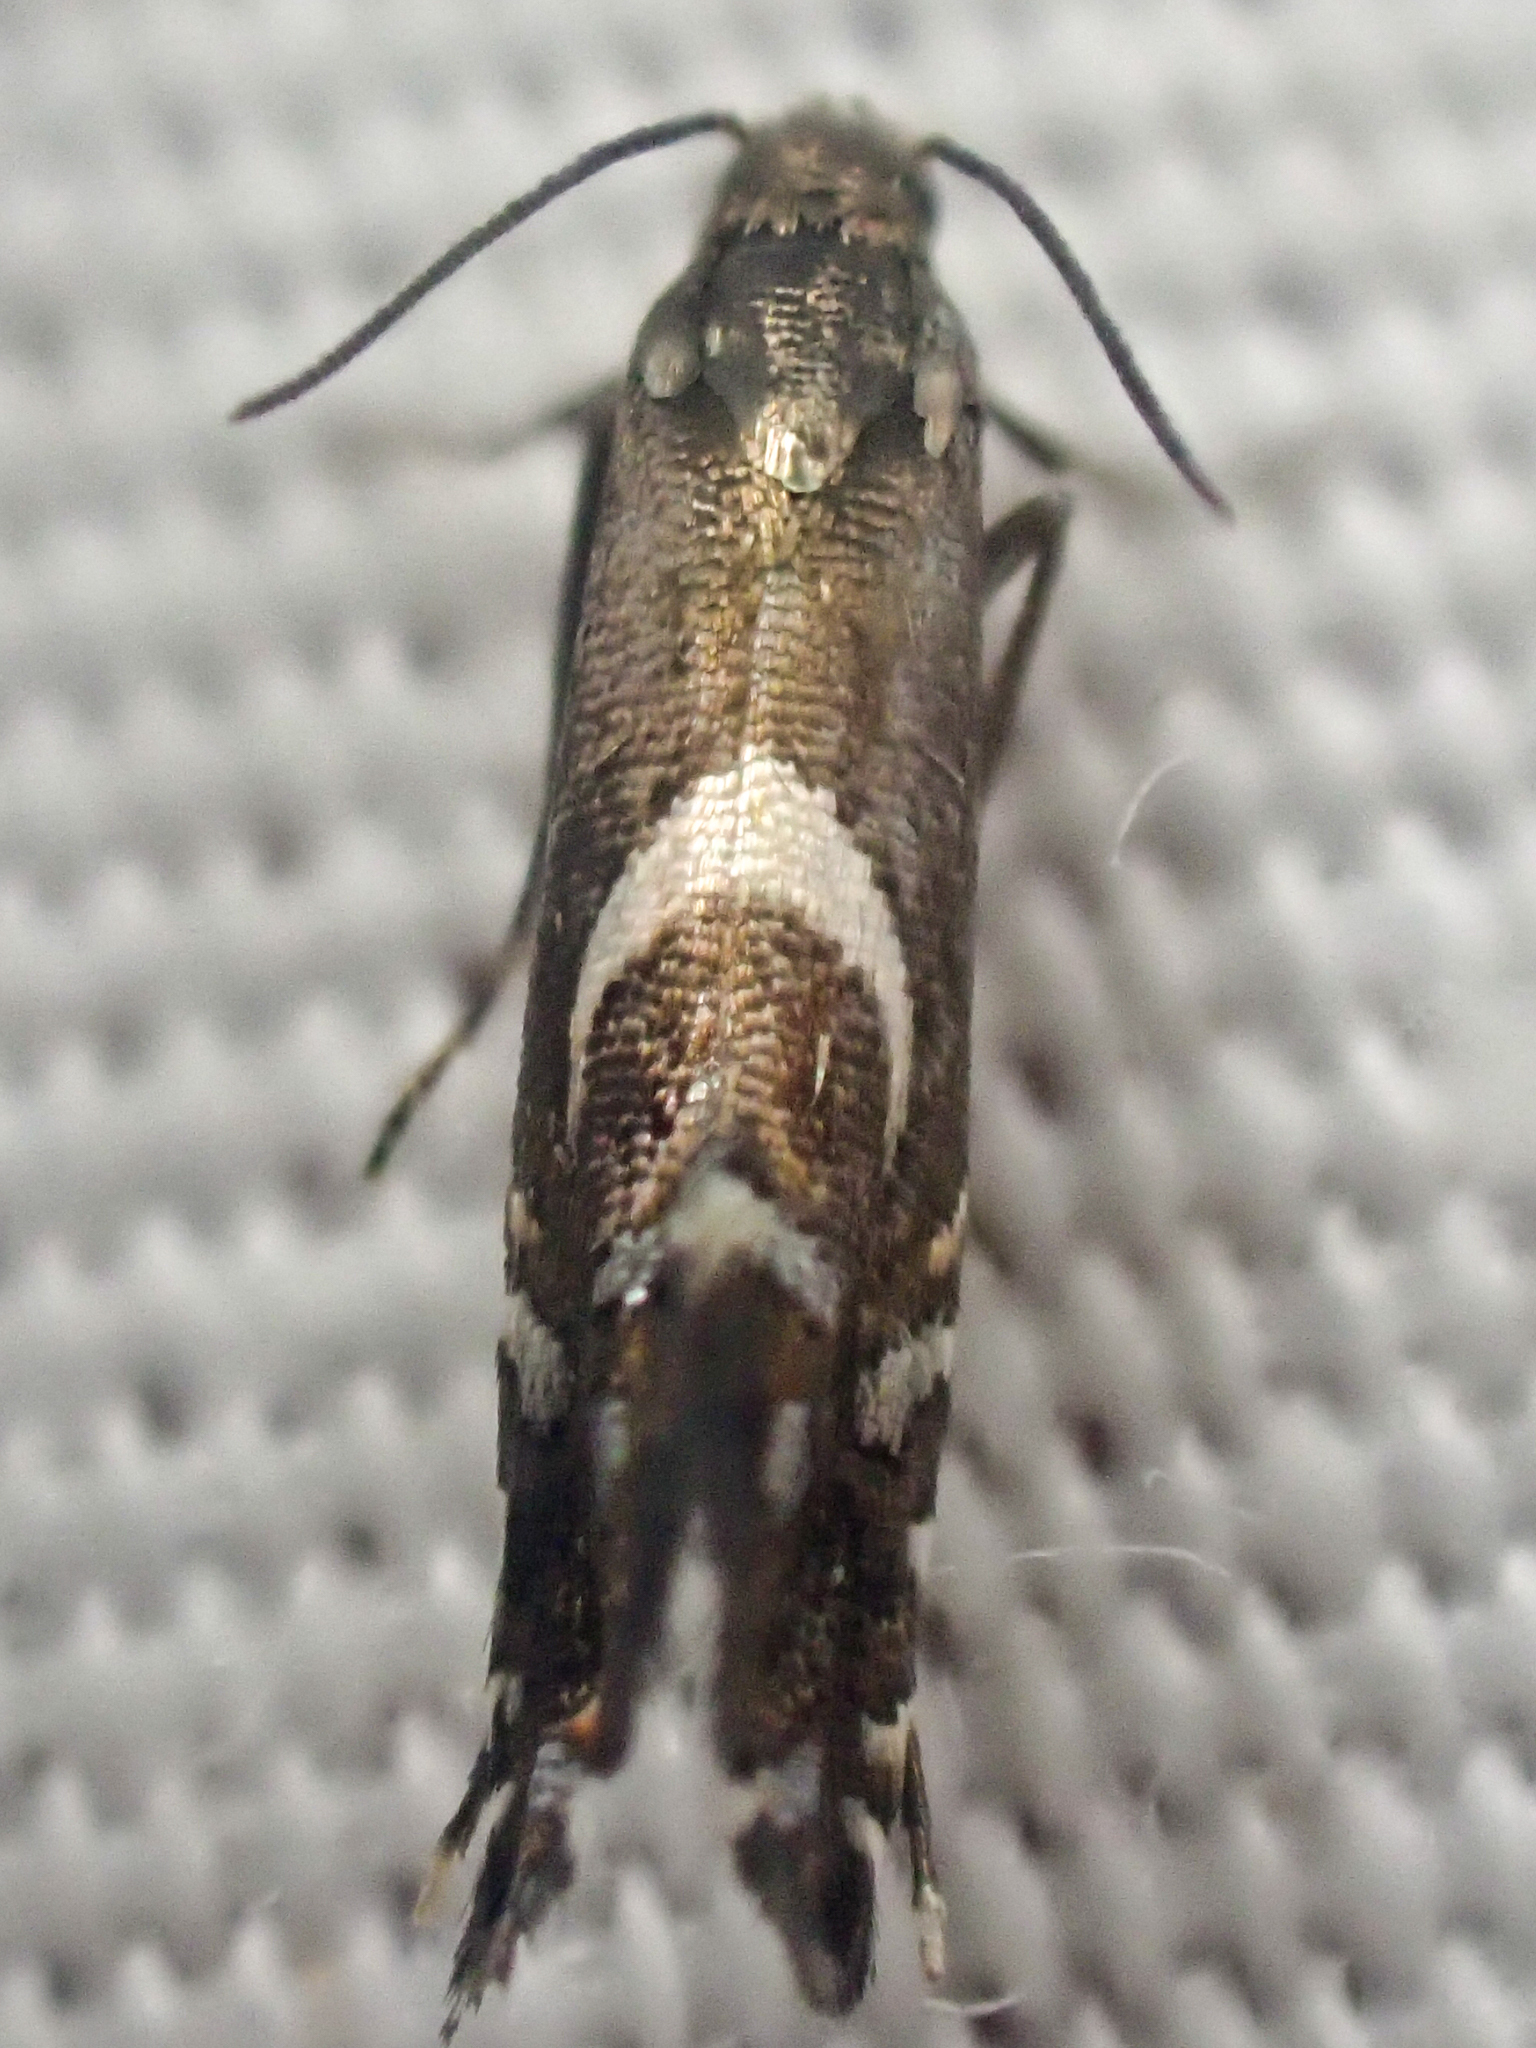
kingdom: Animalia
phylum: Arthropoda
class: Insecta
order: Lepidoptera
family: Glyphipterigidae
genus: Glyphipterix
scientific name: Glyphipterix Diploschizia impigritella
